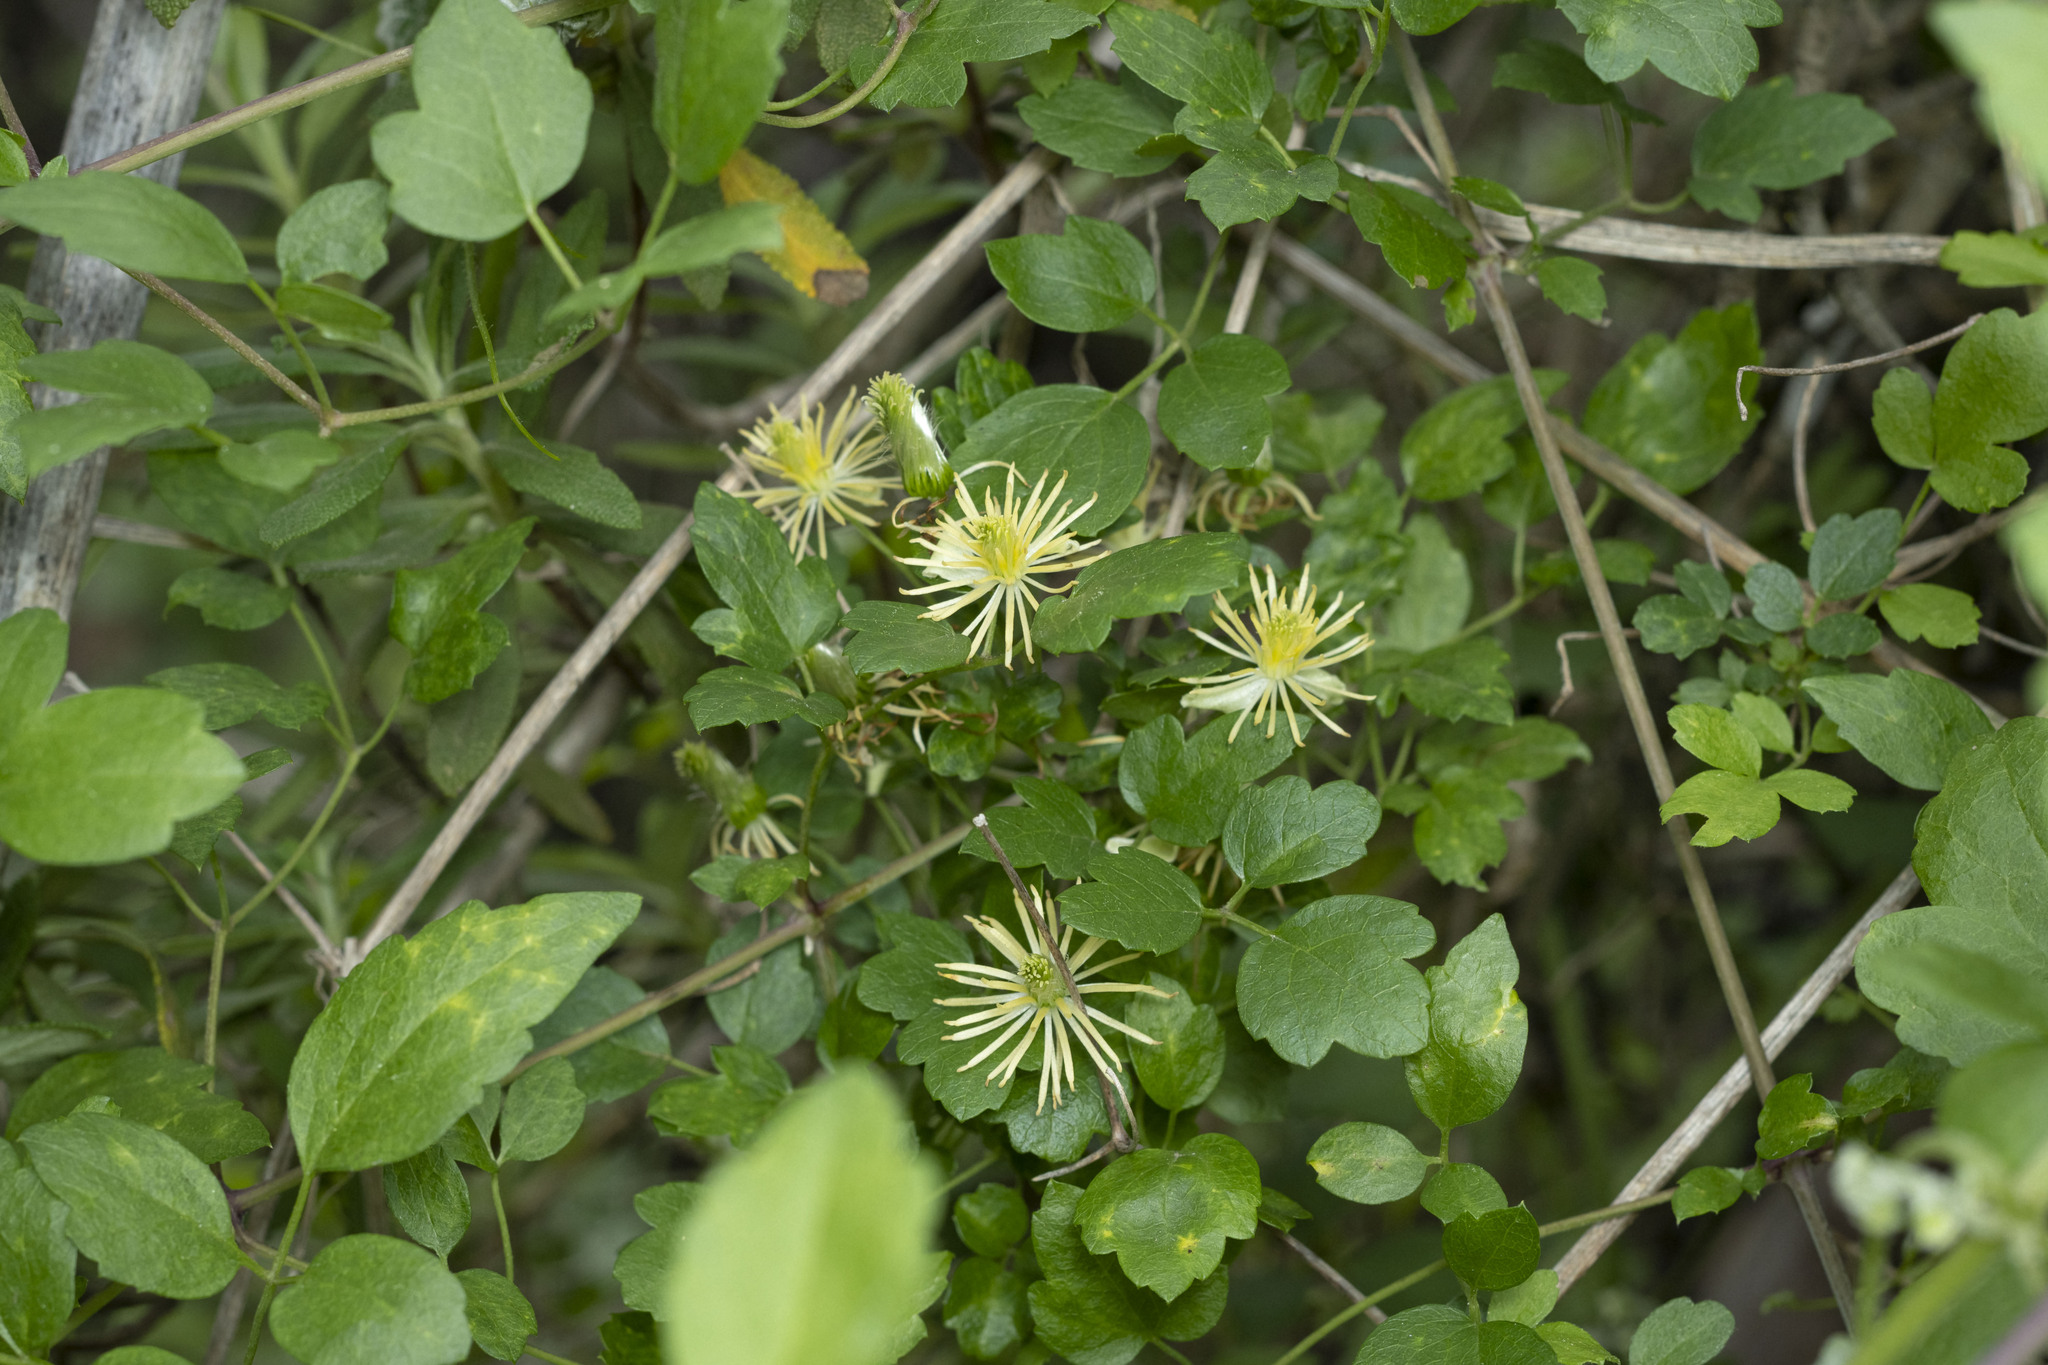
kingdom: Plantae
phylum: Tracheophyta
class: Magnoliopsida
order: Ranunculales
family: Ranunculaceae
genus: Clematis
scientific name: Clematis pauciflora
